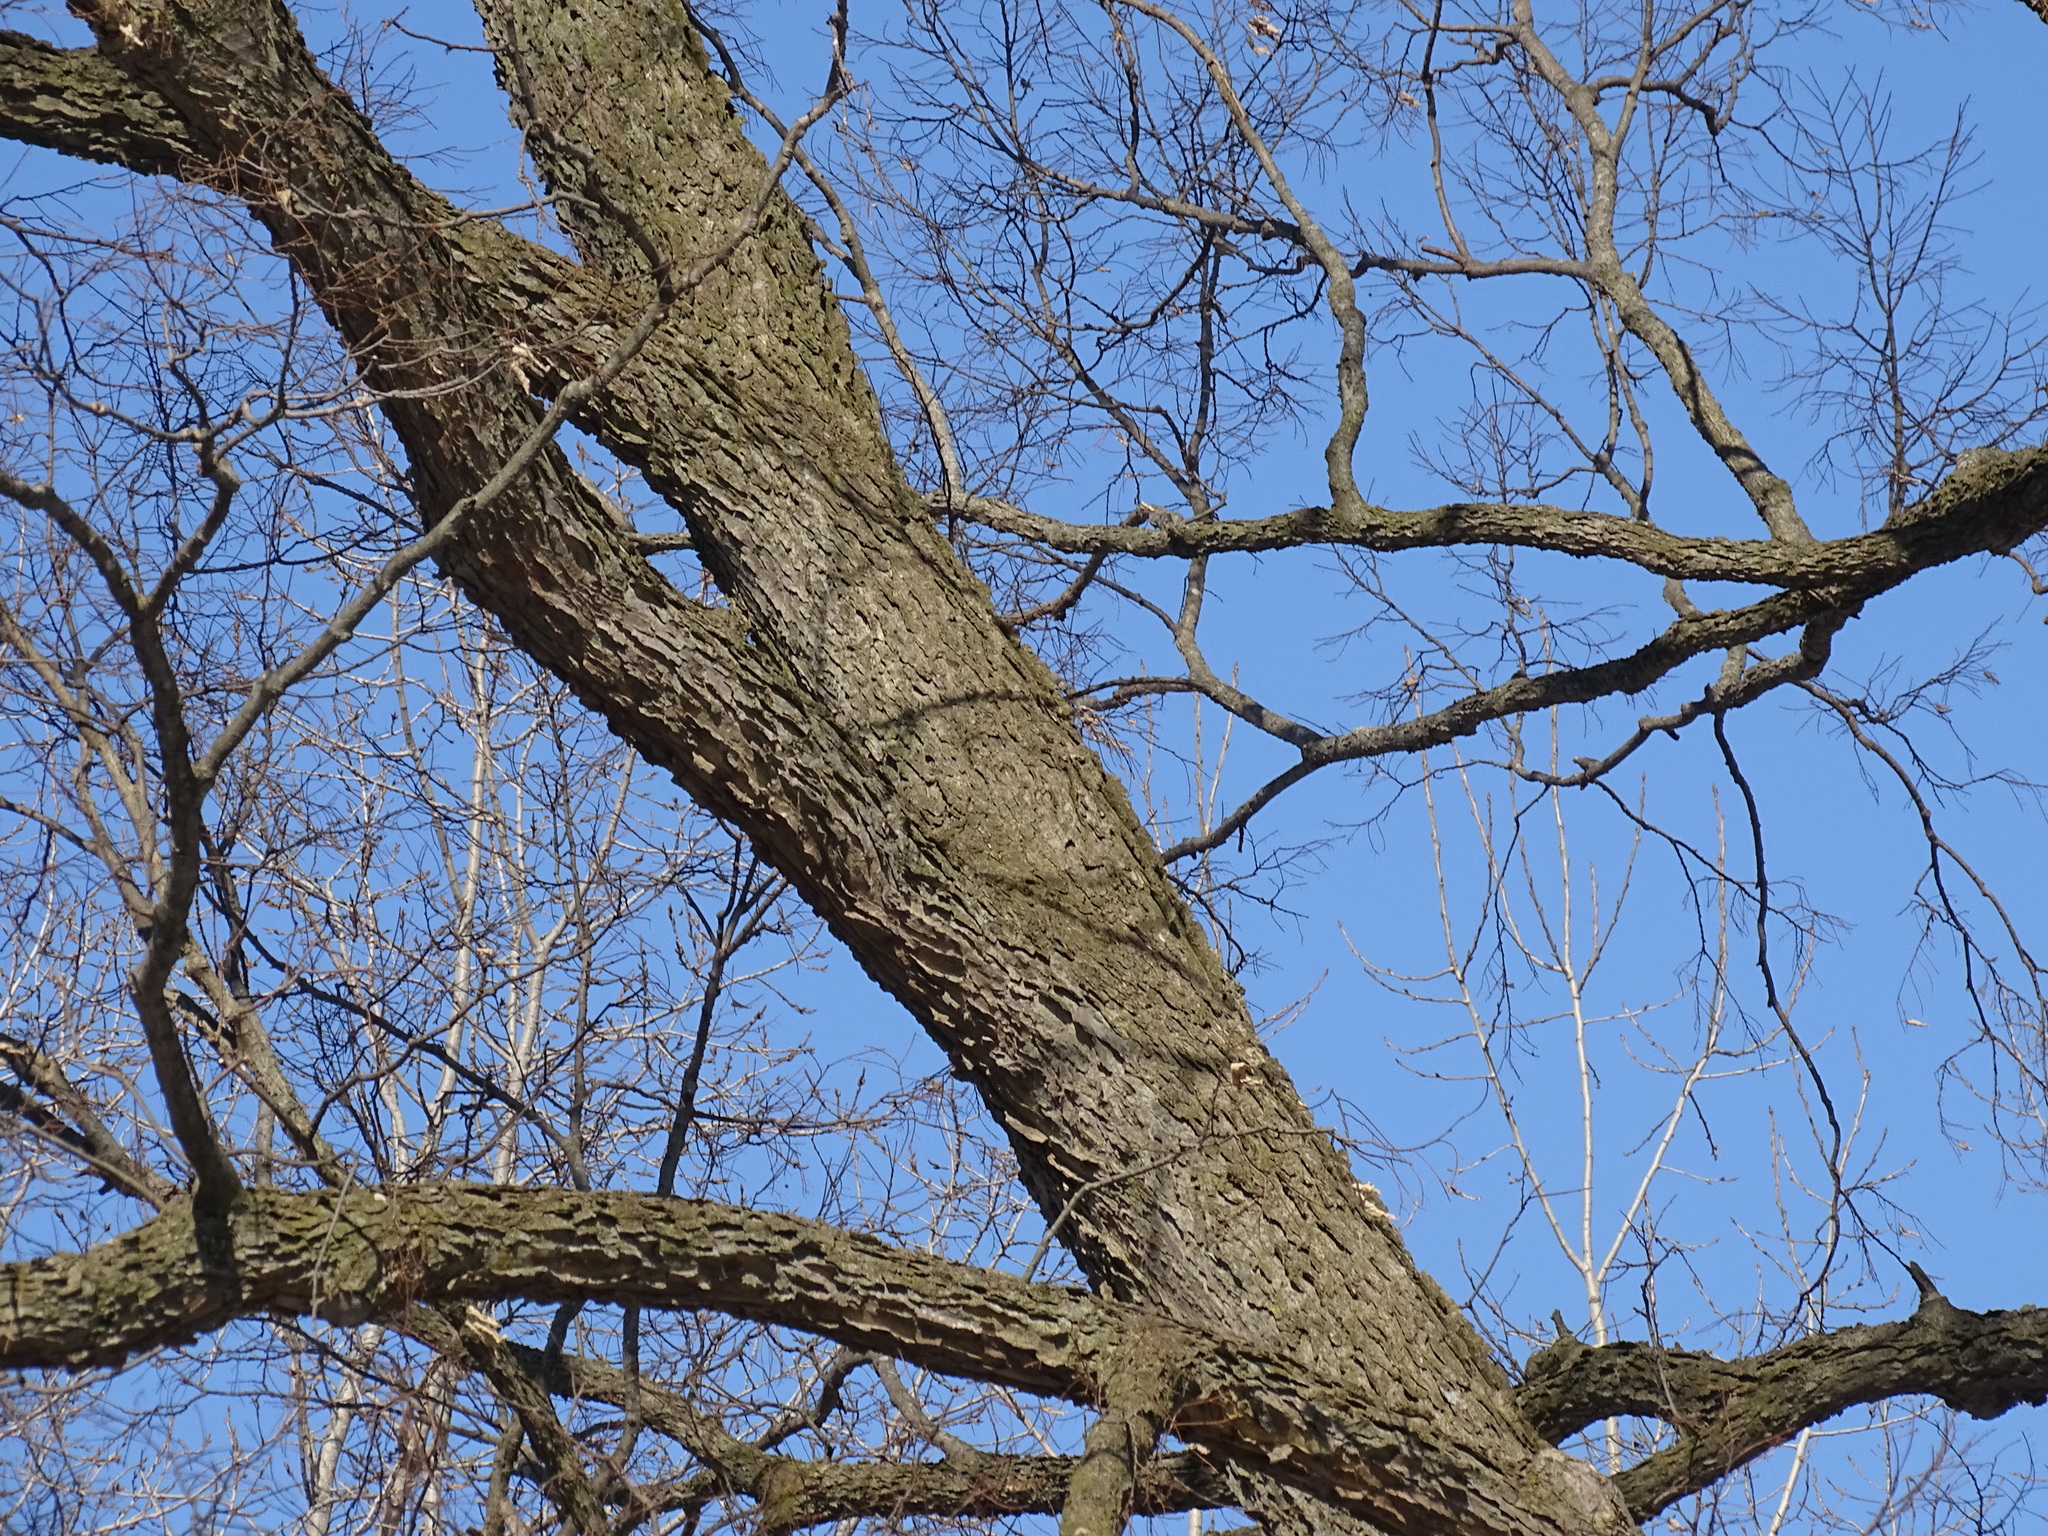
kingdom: Plantae
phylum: Tracheophyta
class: Magnoliopsida
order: Rosales
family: Cannabaceae
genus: Celtis
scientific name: Celtis occidentalis
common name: Common hackberry
